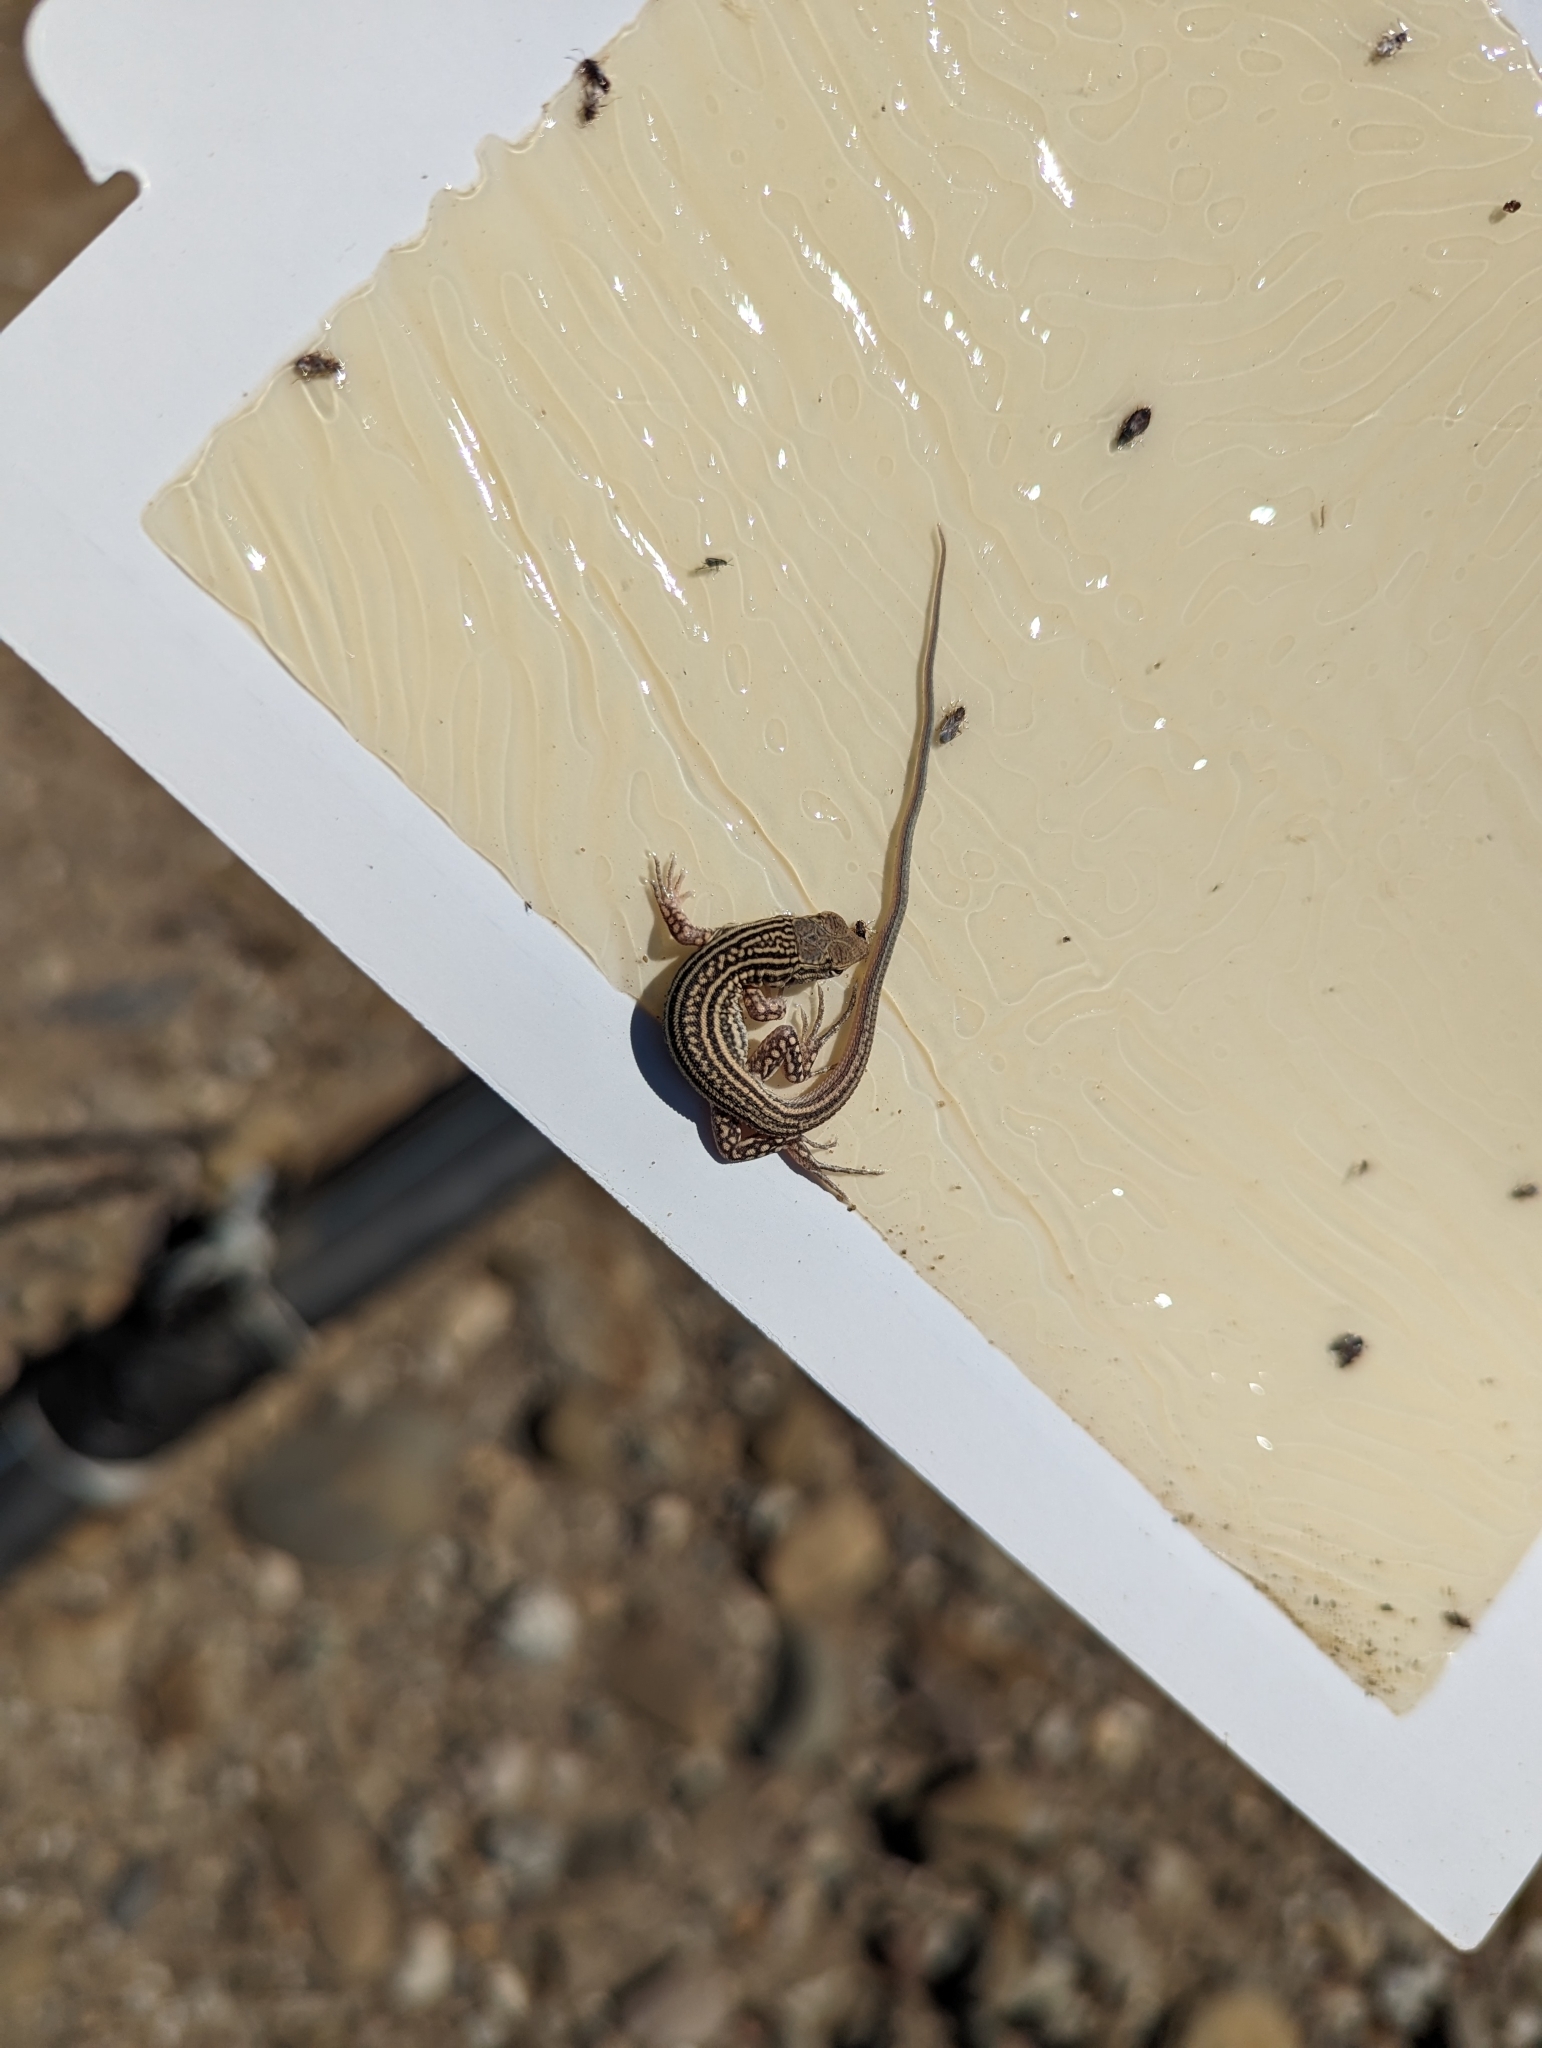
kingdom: Animalia
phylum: Chordata
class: Squamata
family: Lacertidae
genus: Acanthodactylus
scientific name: Acanthodactylus boskianus
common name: Bosc’s fringe-toed lizard
